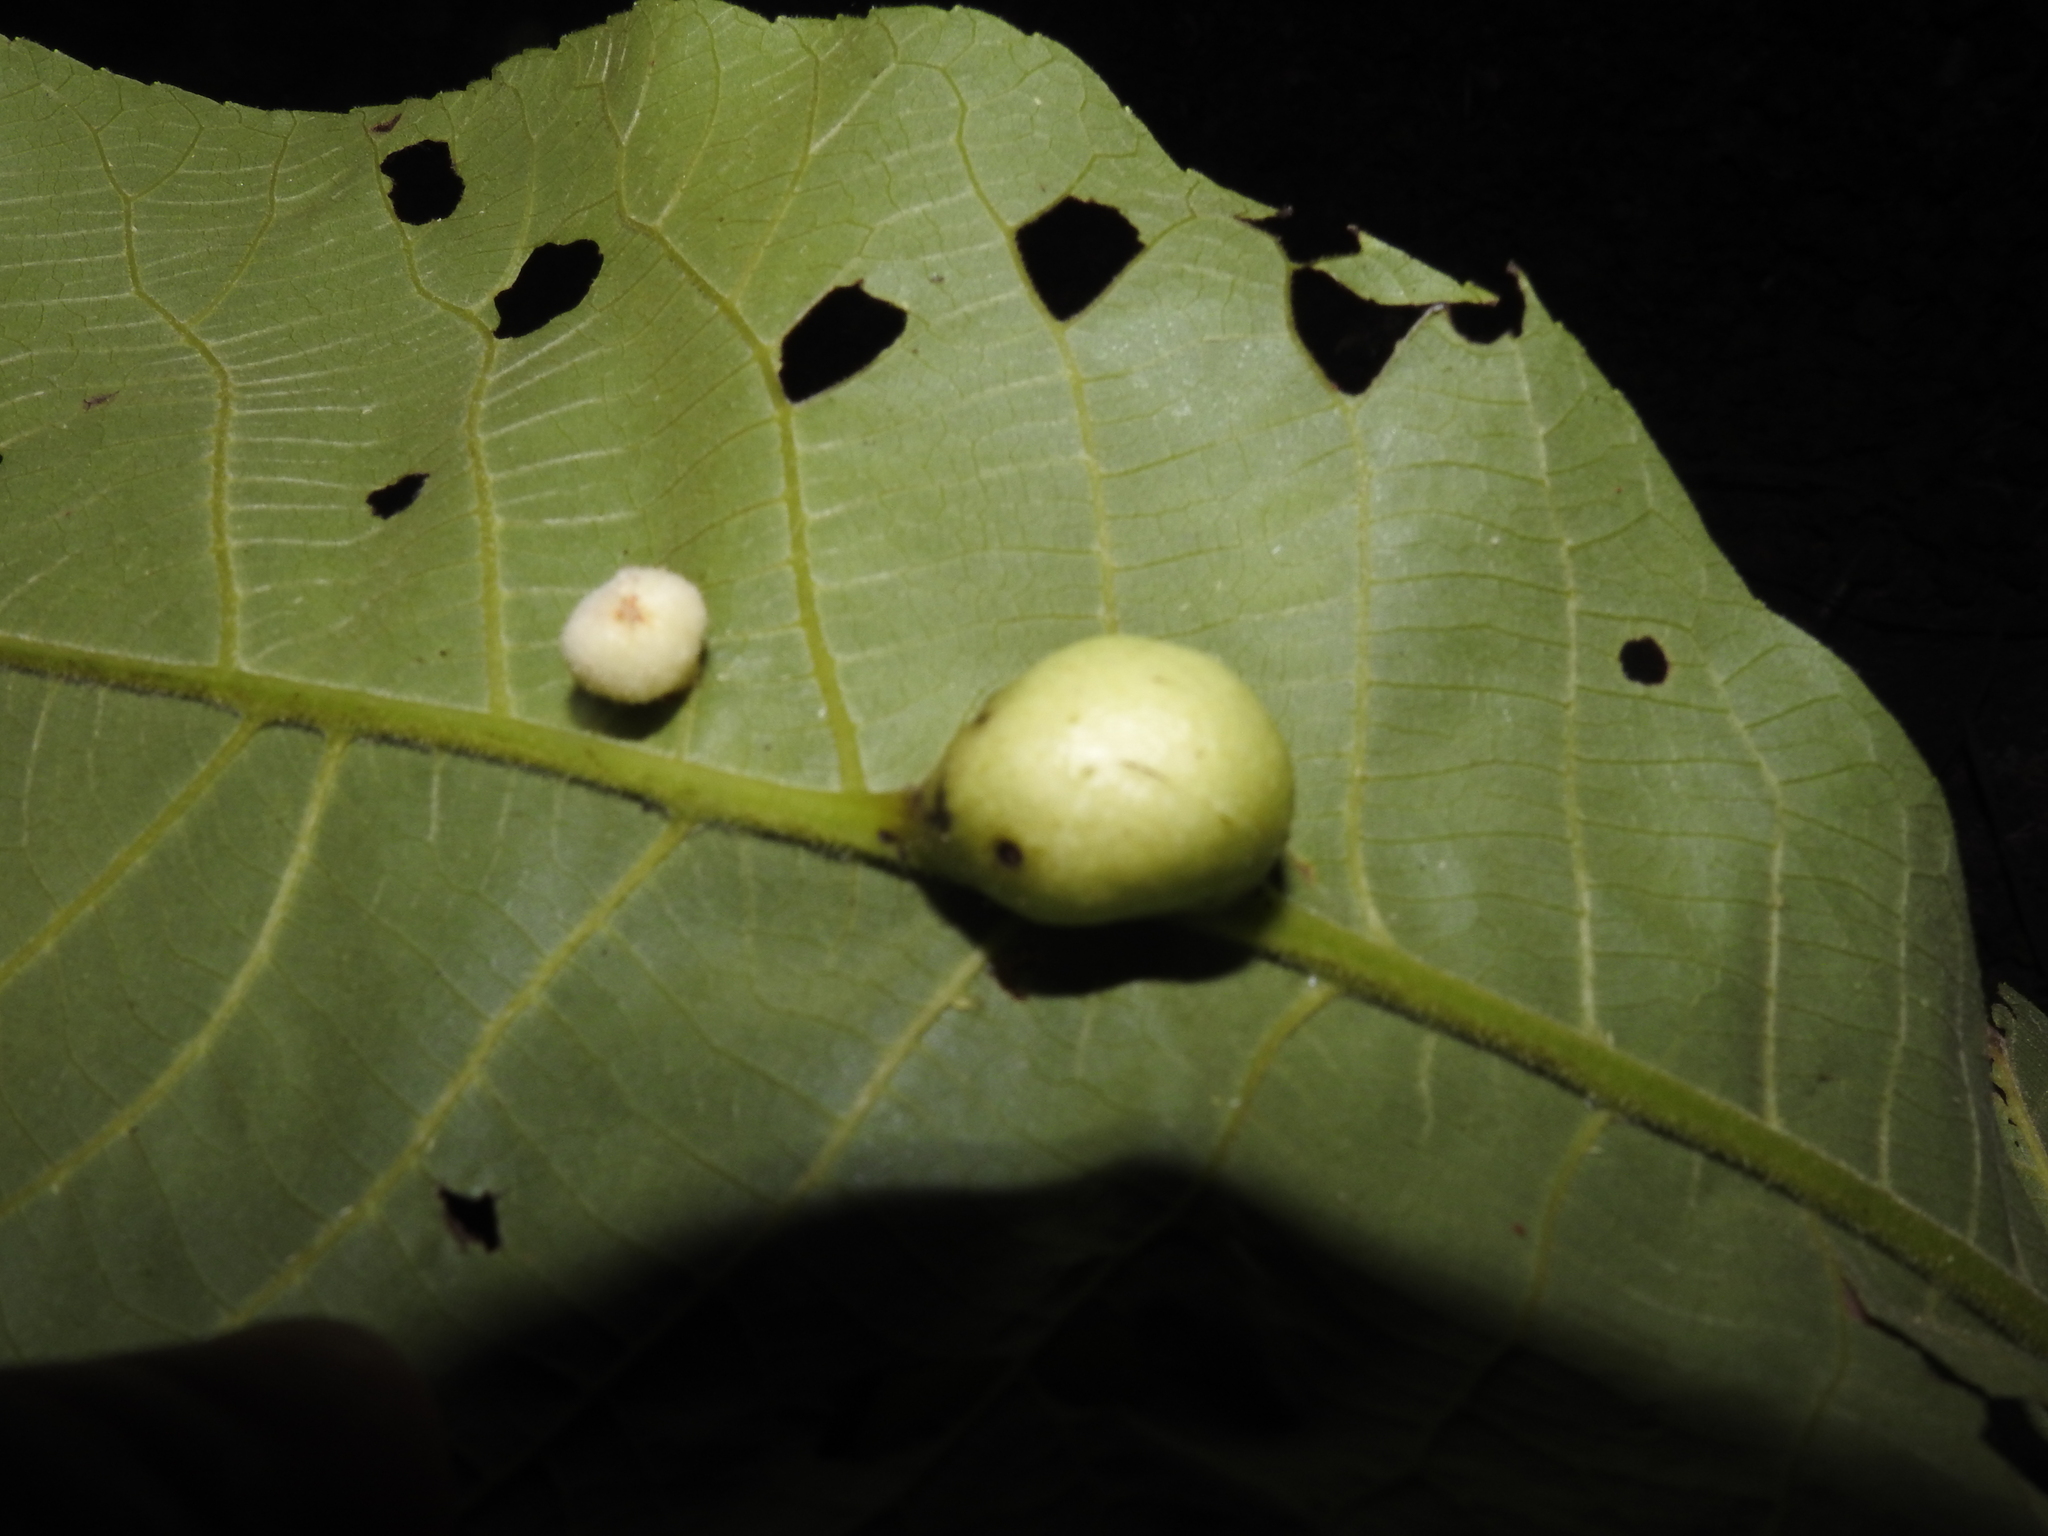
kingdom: Animalia
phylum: Arthropoda
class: Insecta
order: Hemiptera
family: Phylloxeridae
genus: Phylloxera
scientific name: Phylloxera caryaegummosa
